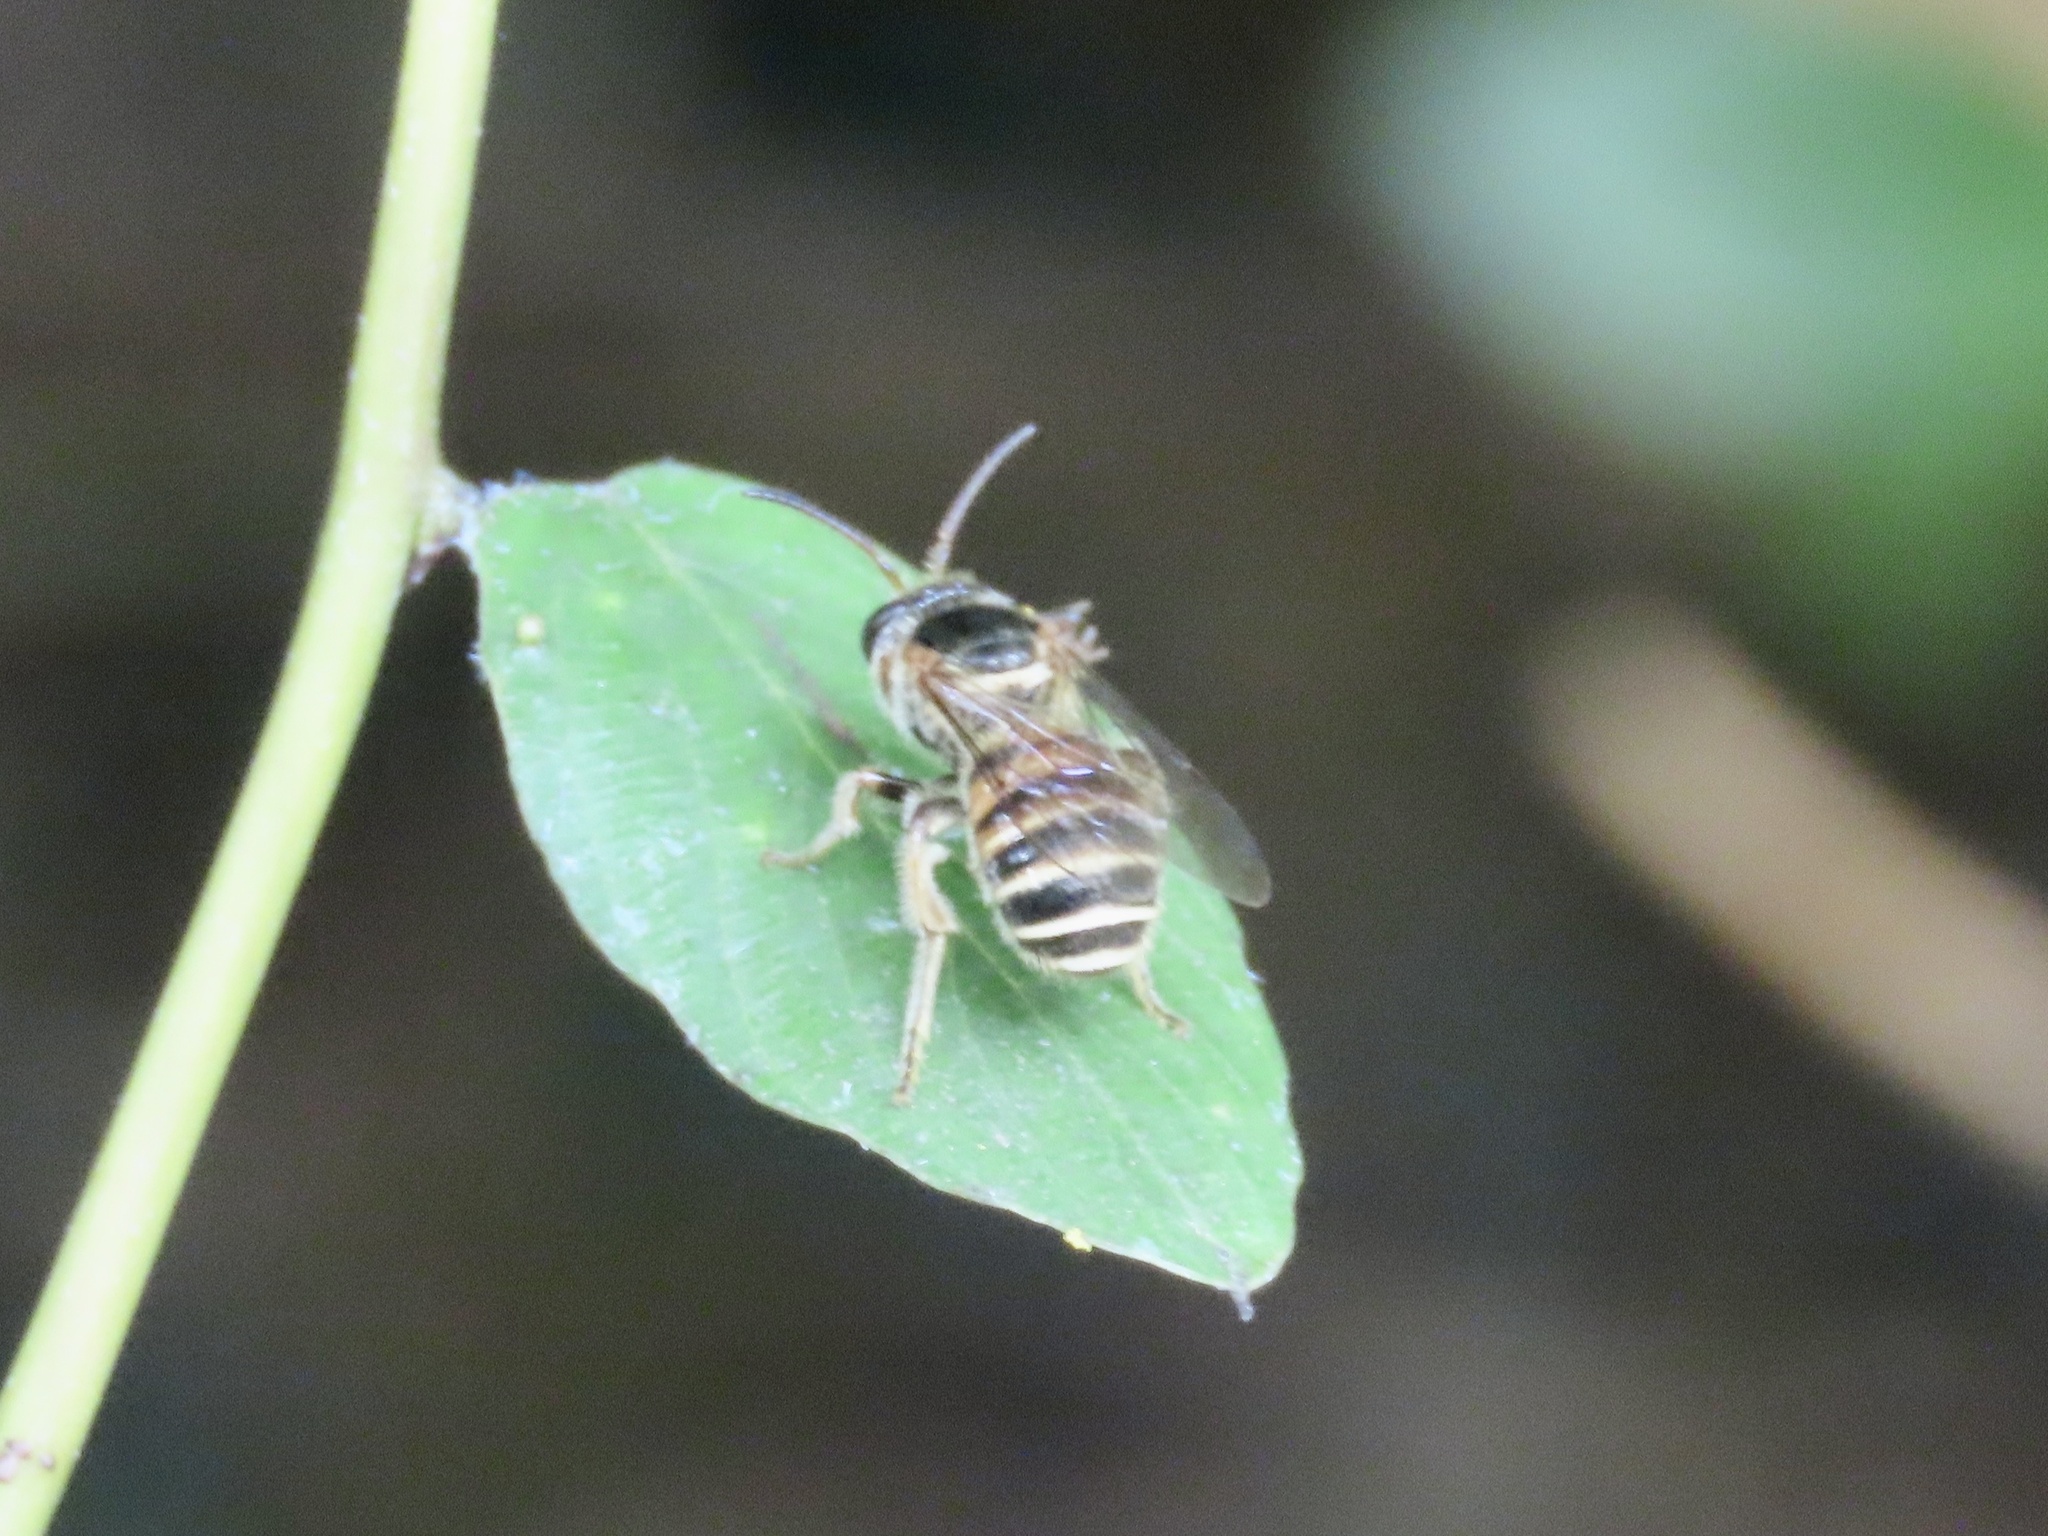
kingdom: Animalia
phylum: Arthropoda
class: Insecta
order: Hymenoptera
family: Halictidae
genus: Nomia
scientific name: Nomia penangensis
